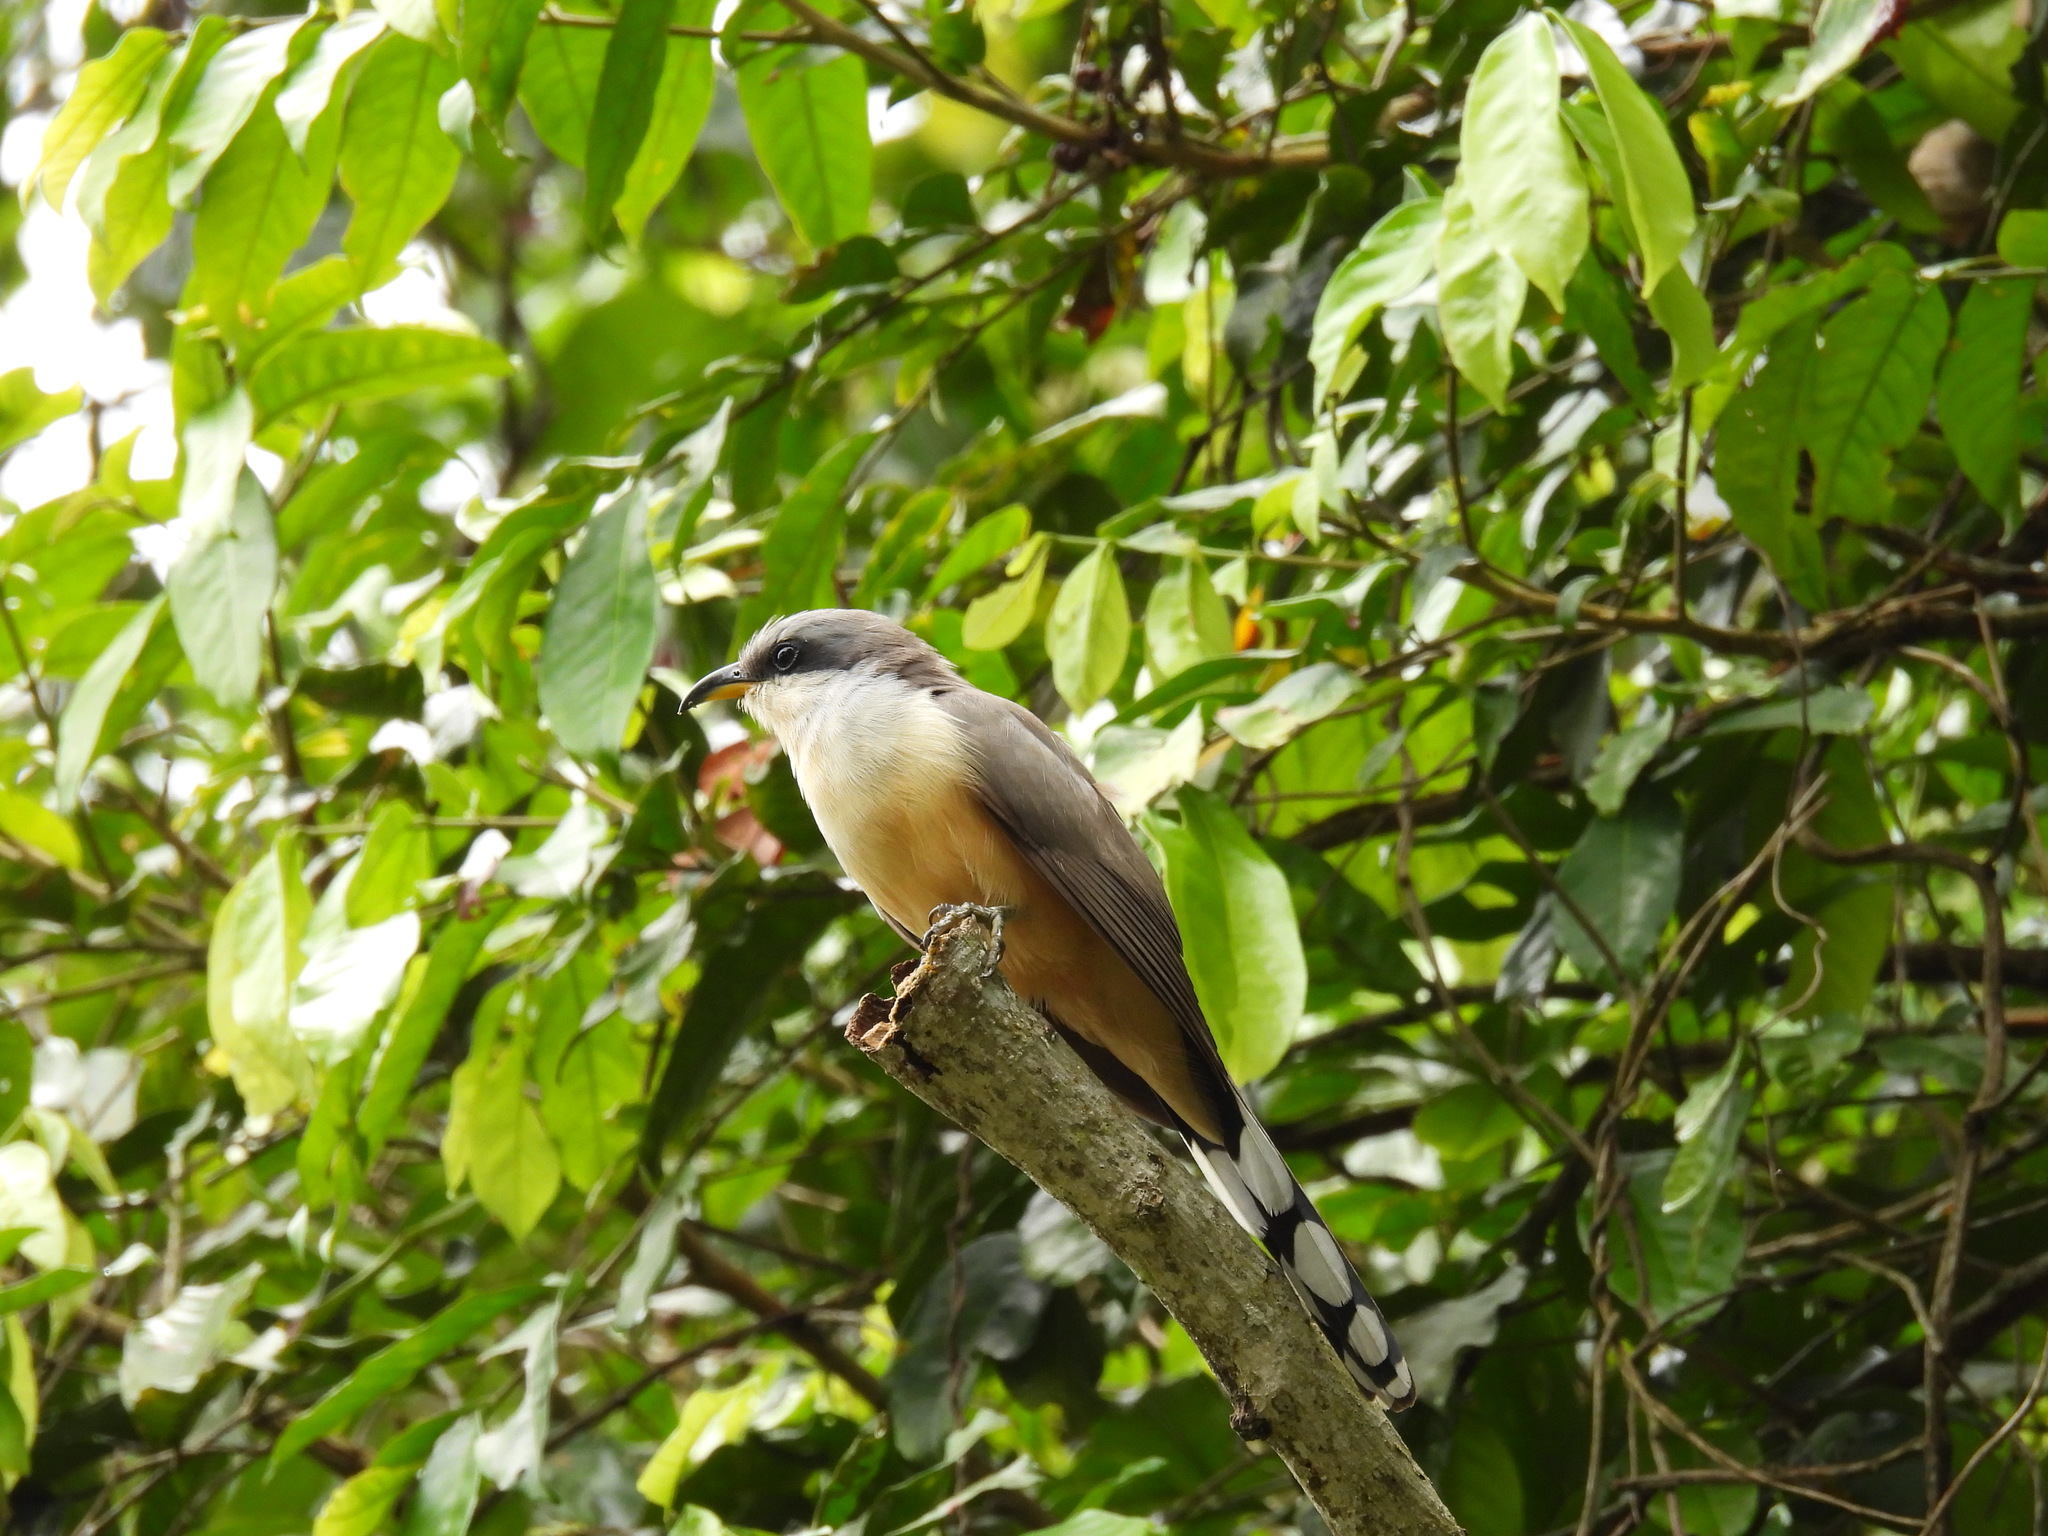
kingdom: Animalia
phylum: Chordata
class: Aves
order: Cuculiformes
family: Cuculidae
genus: Coccyzus
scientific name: Coccyzus minor
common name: Mangrove cuckoo
